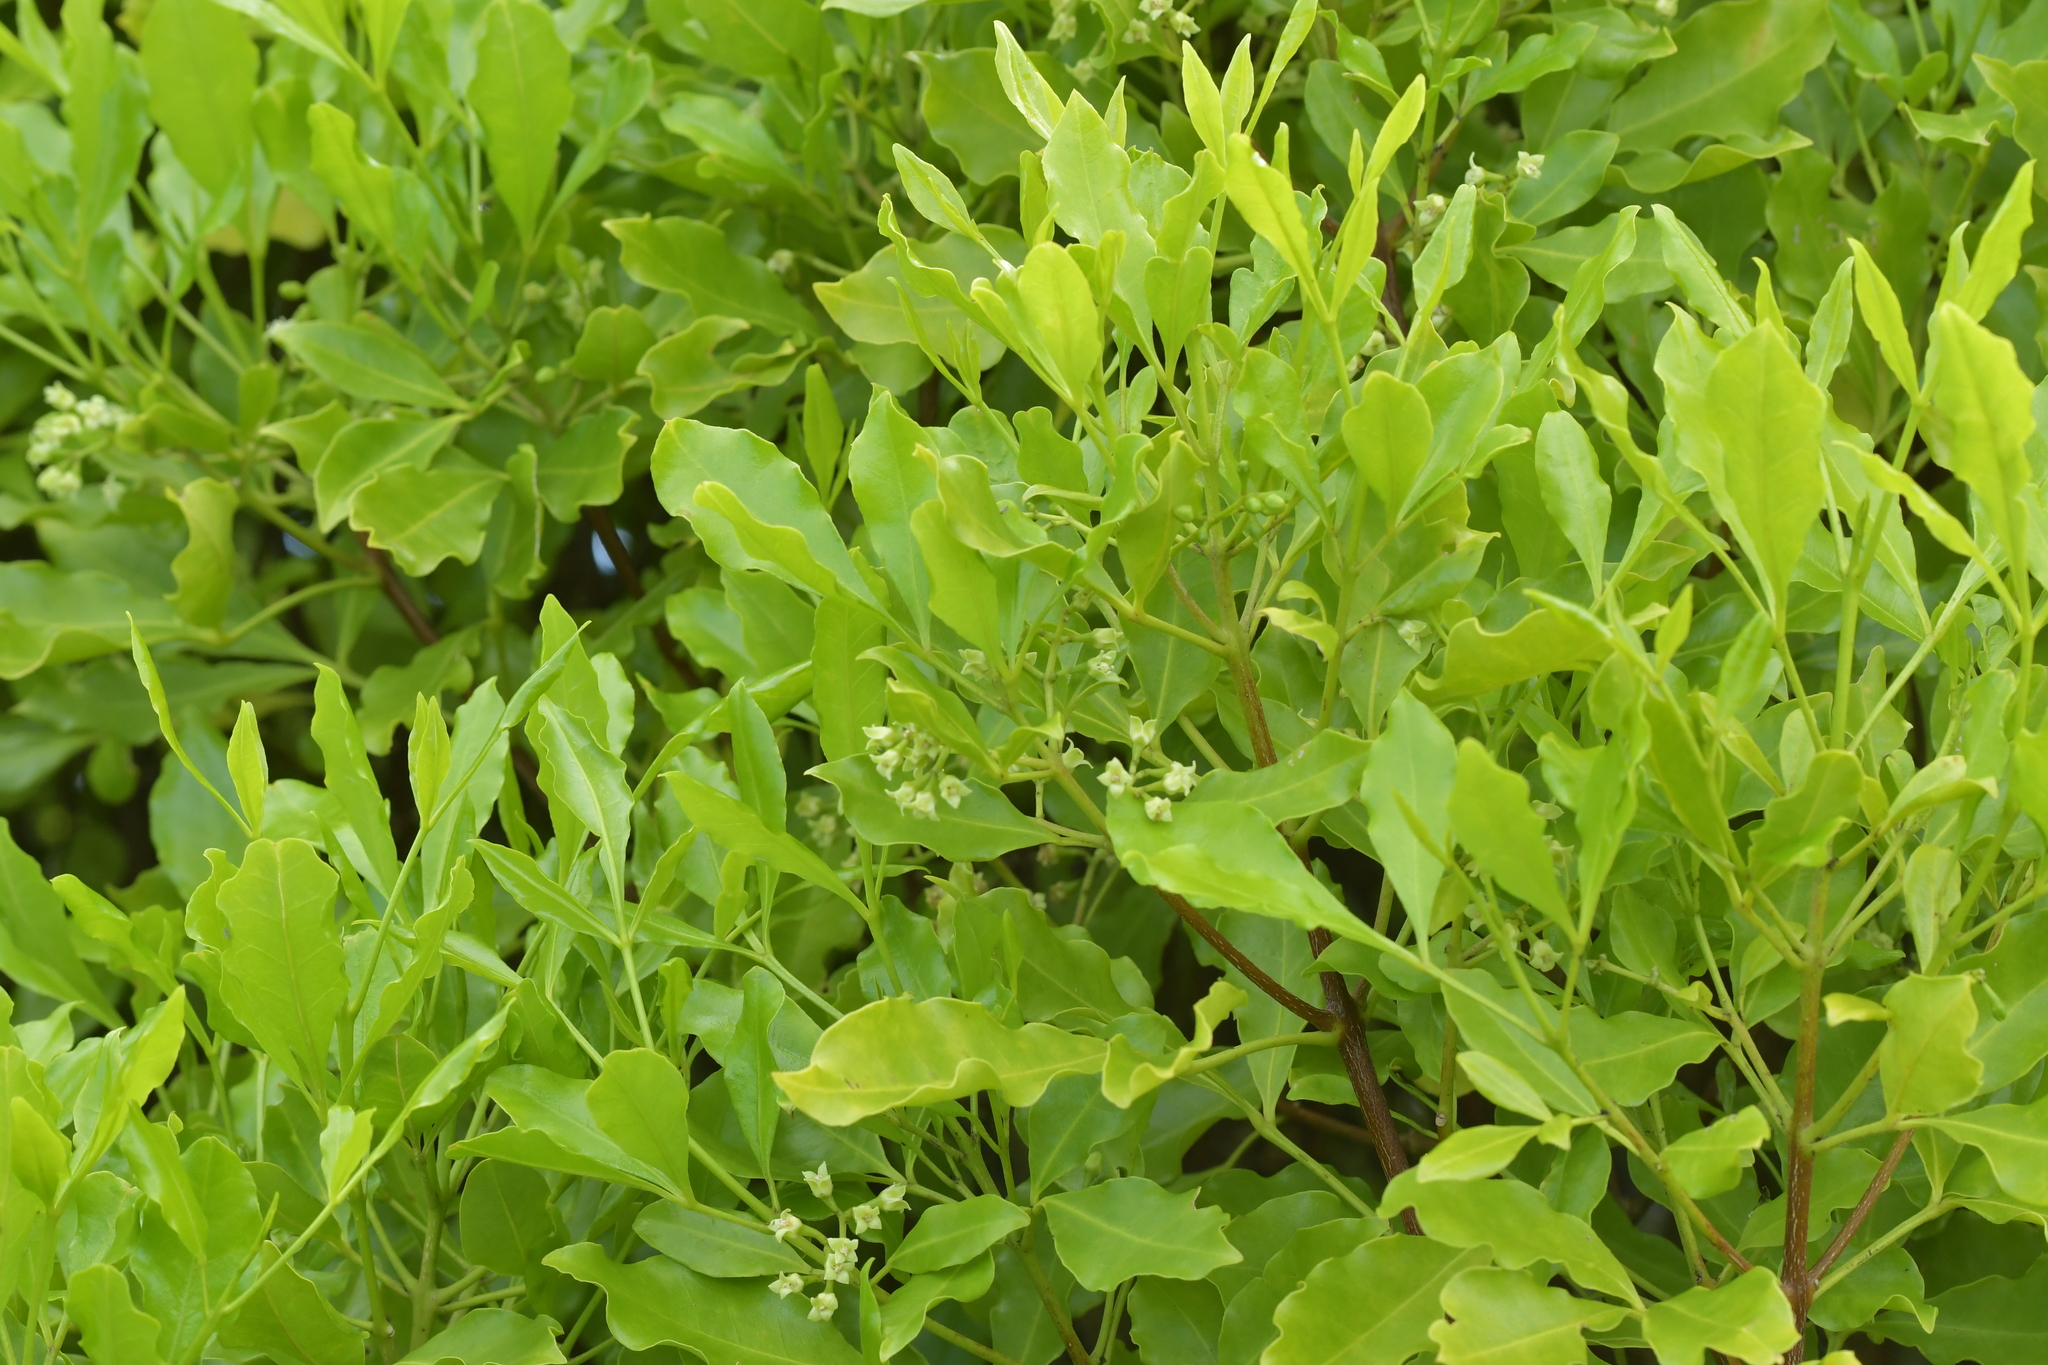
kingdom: Plantae
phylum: Tracheophyta
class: Magnoliopsida
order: Sapindales
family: Rutaceae
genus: Melicope
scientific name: Melicope ternata
